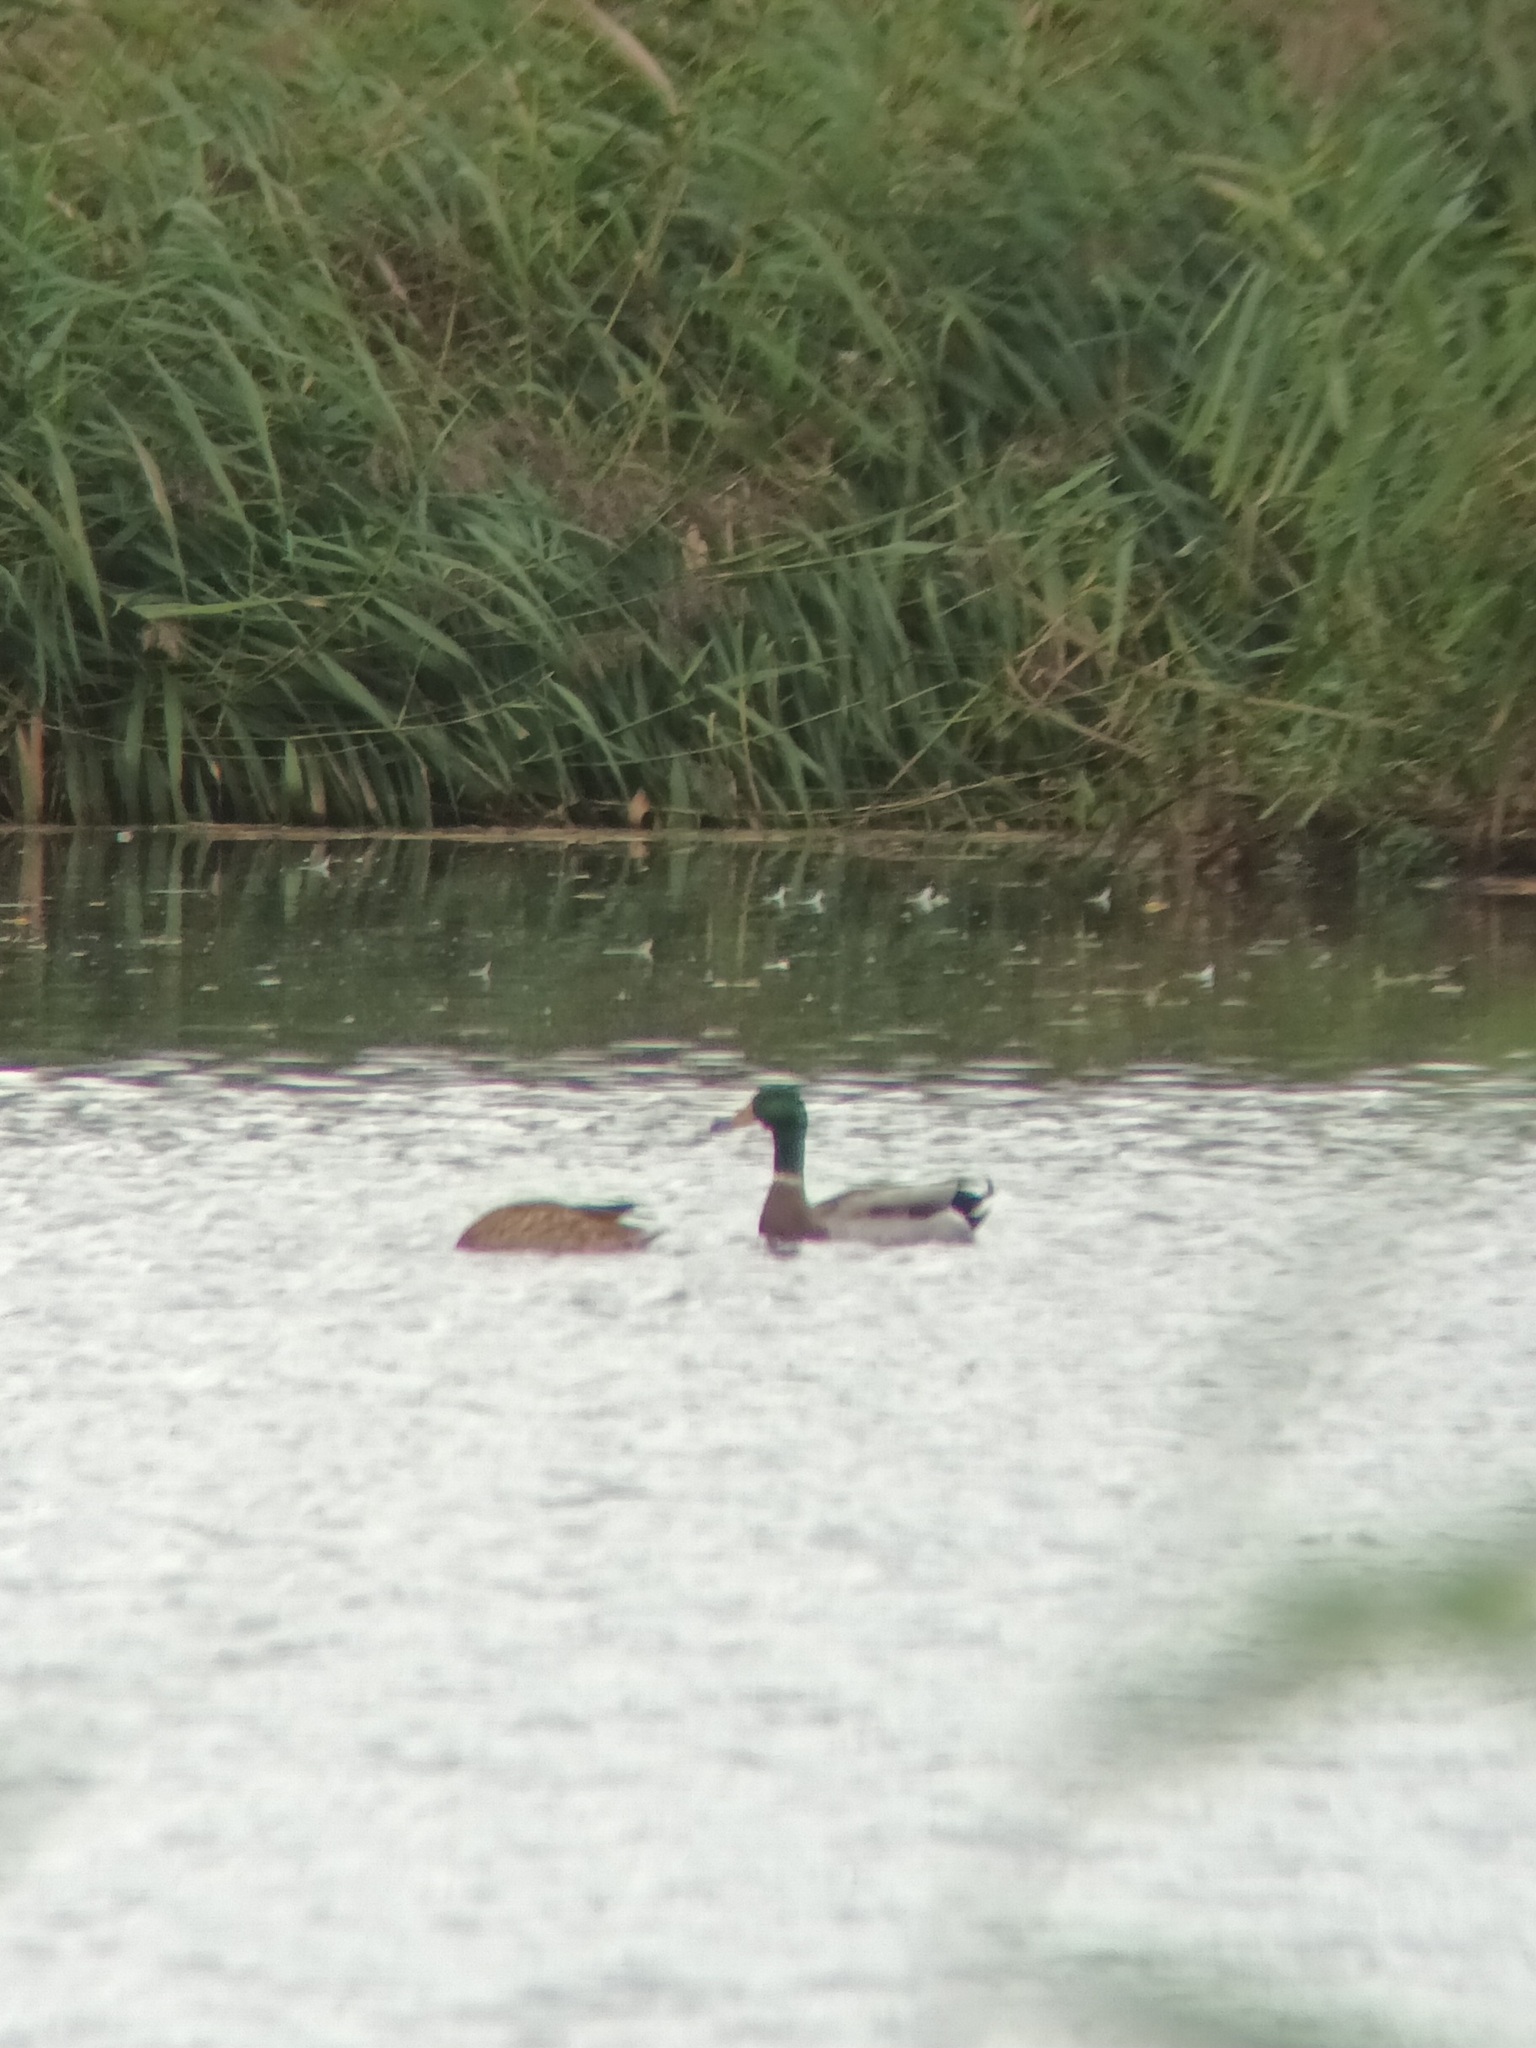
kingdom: Animalia
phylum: Chordata
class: Aves
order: Anseriformes
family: Anatidae
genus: Anas
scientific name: Anas platyrhynchos
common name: Mallard
